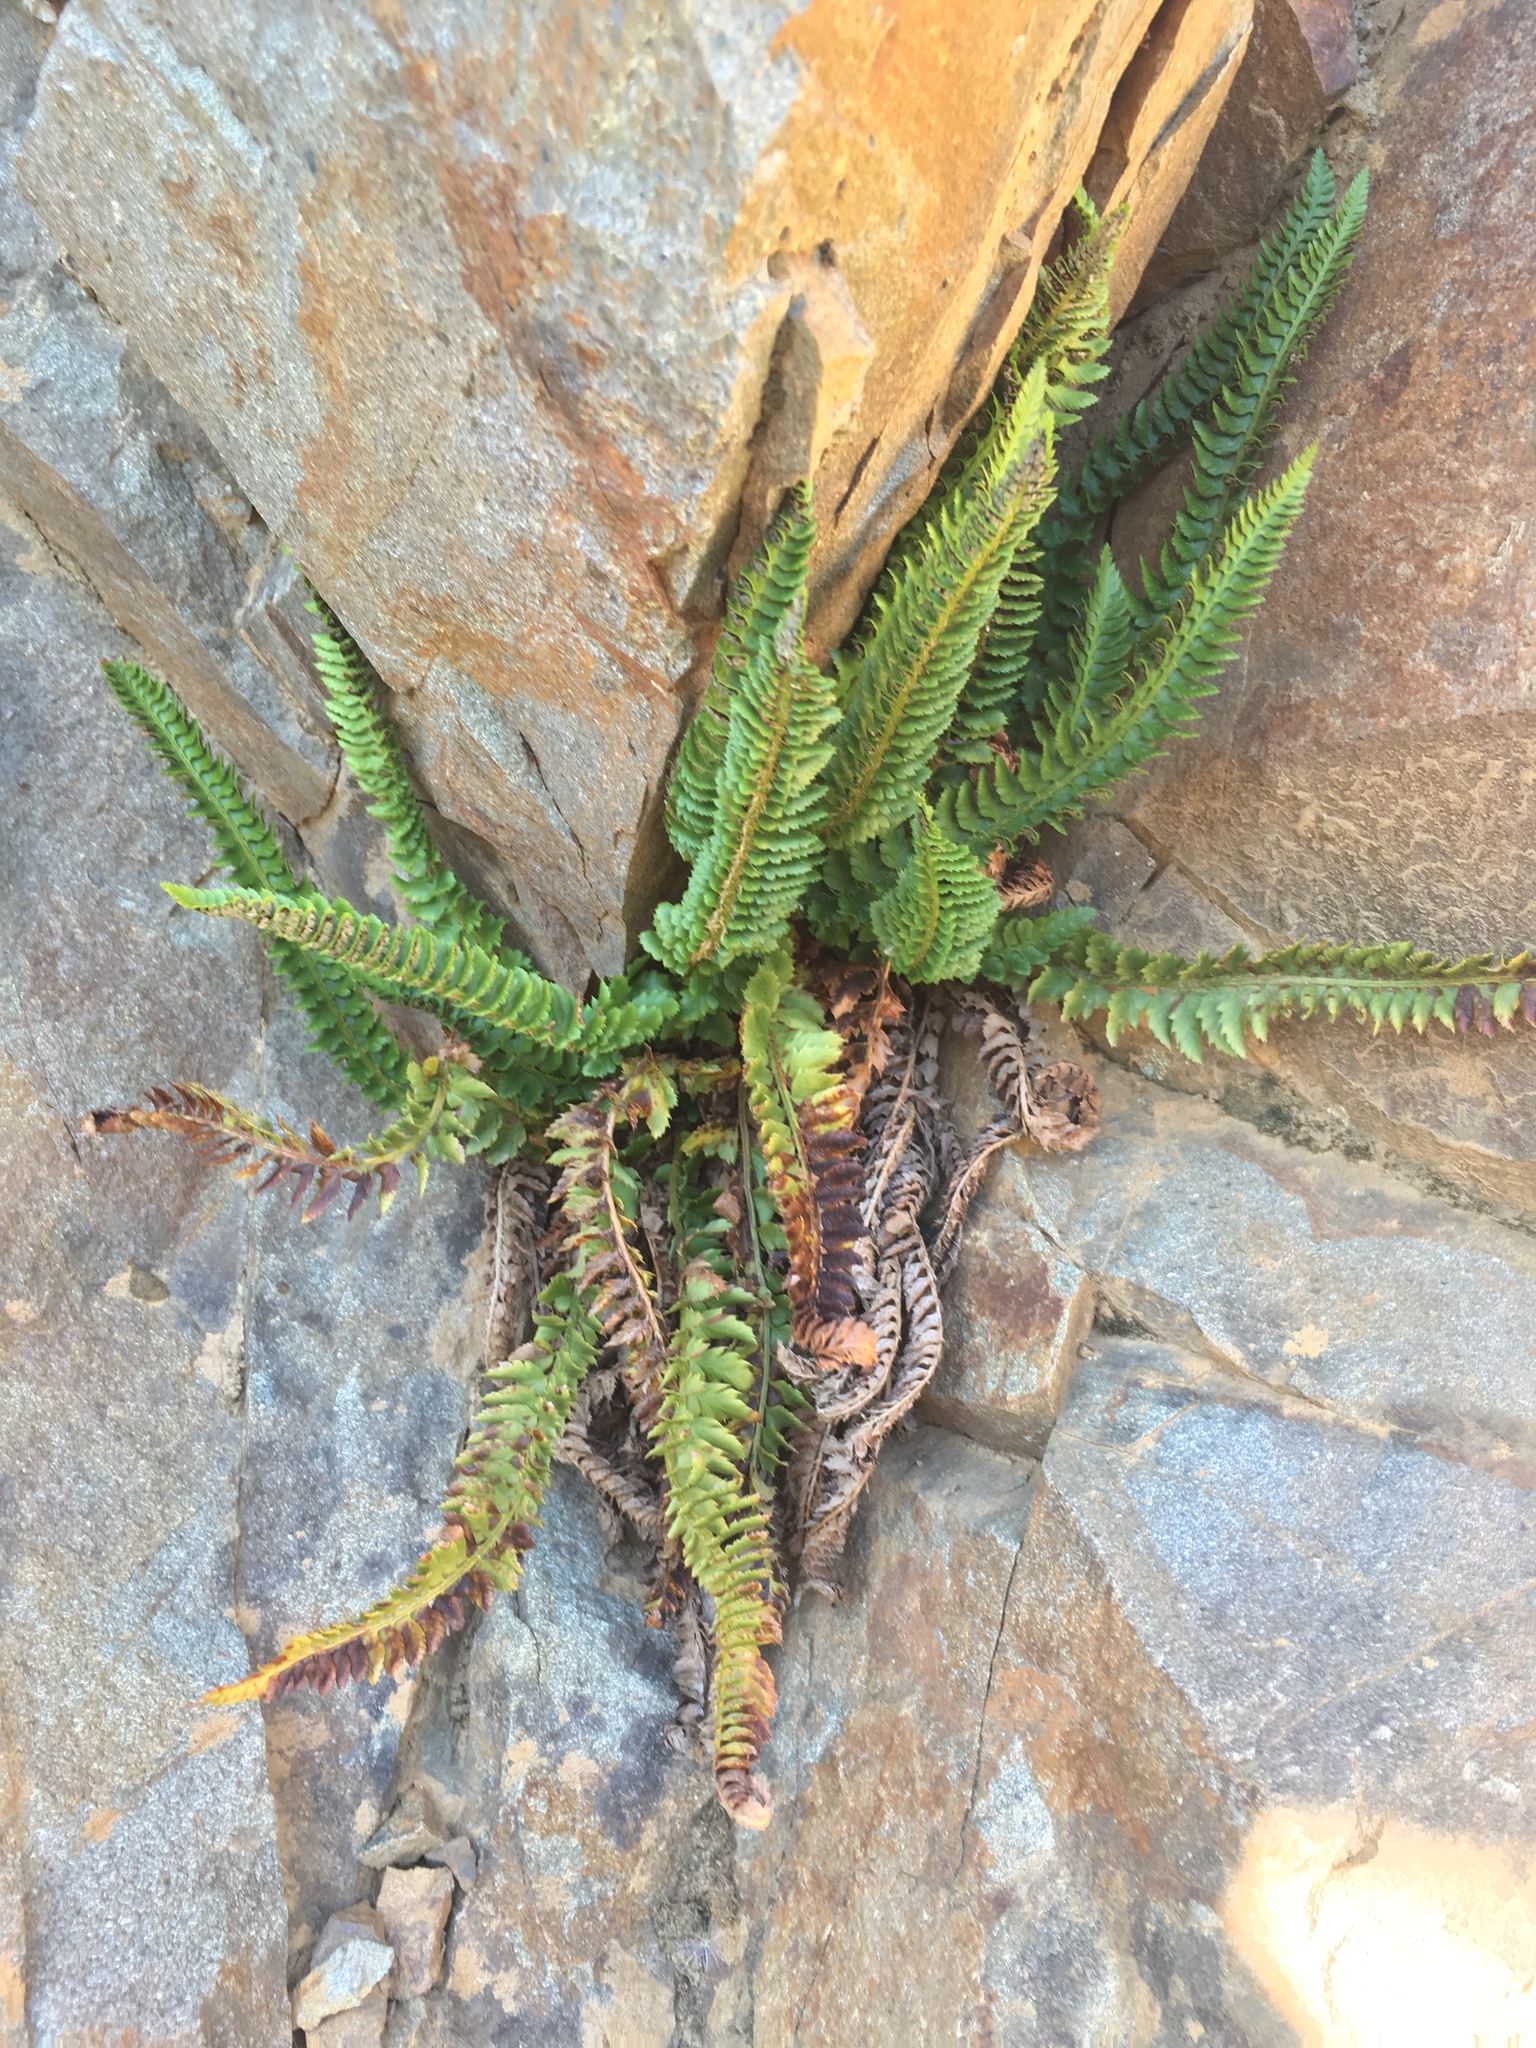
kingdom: Plantae
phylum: Tracheophyta
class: Polypodiopsida
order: Polypodiales
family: Dryopteridaceae
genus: Polystichum
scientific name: Polystichum kruckebergii
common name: Kruckeberg's holly fern
